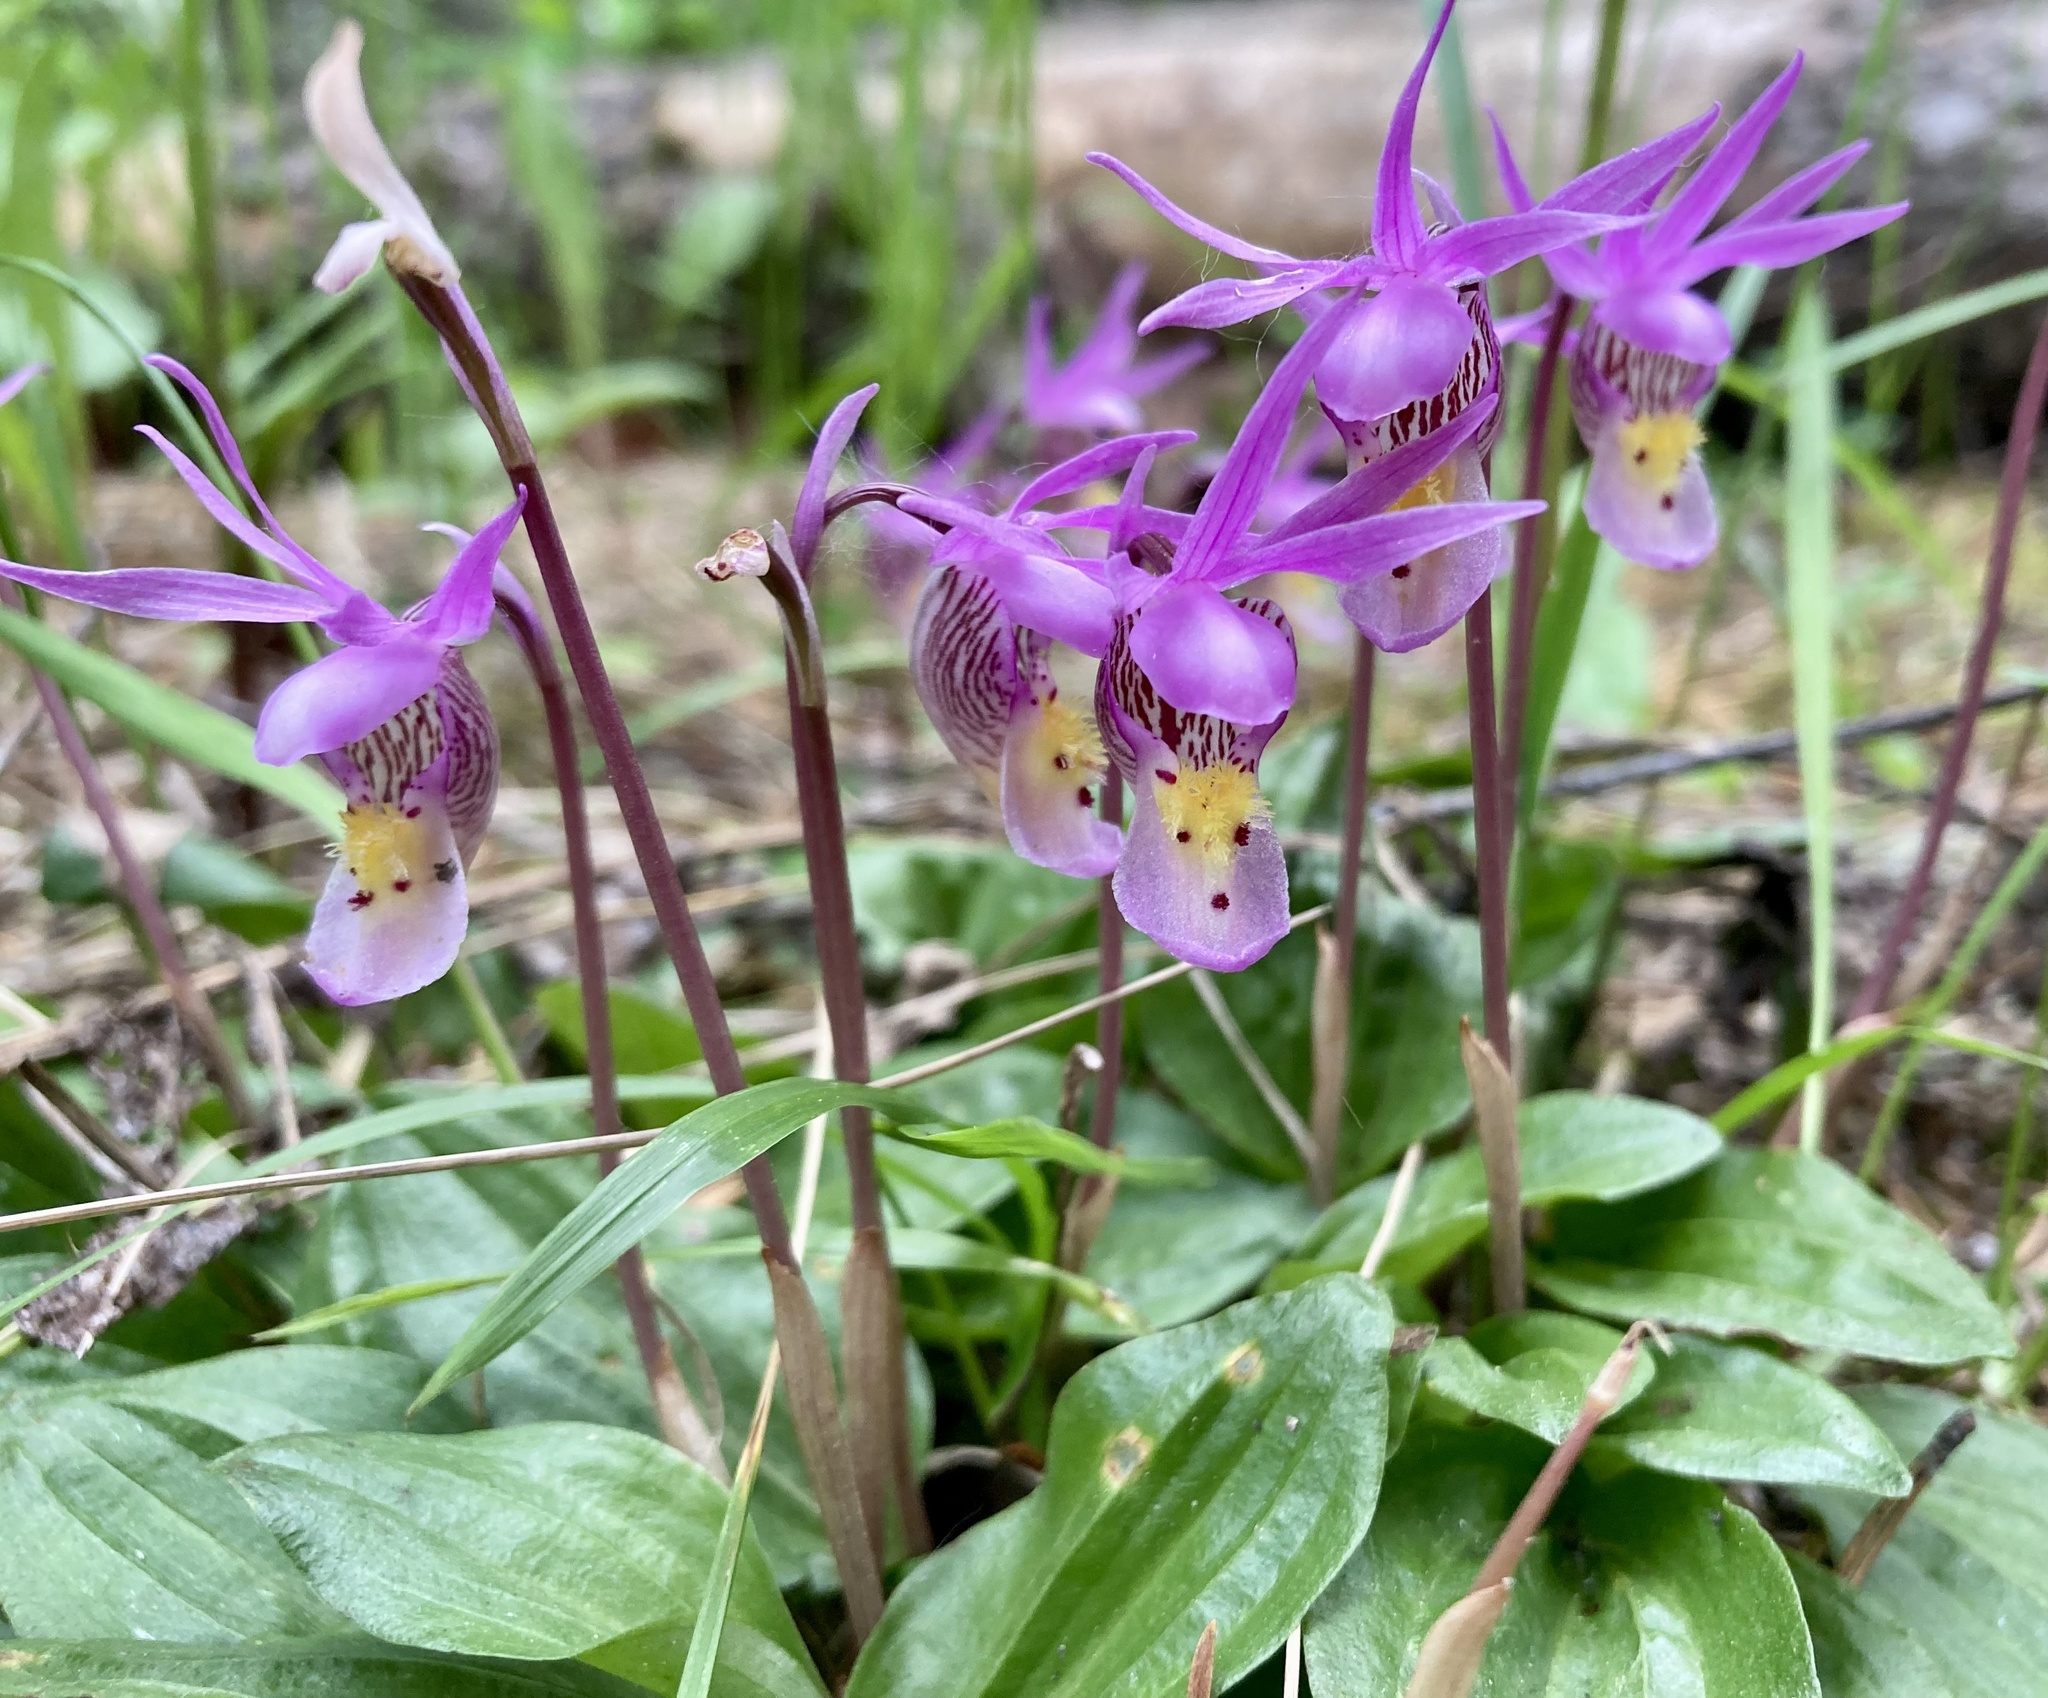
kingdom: Plantae
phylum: Tracheophyta
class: Liliopsida
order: Asparagales
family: Orchidaceae
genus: Calypso
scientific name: Calypso bulbosa
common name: Calypso
